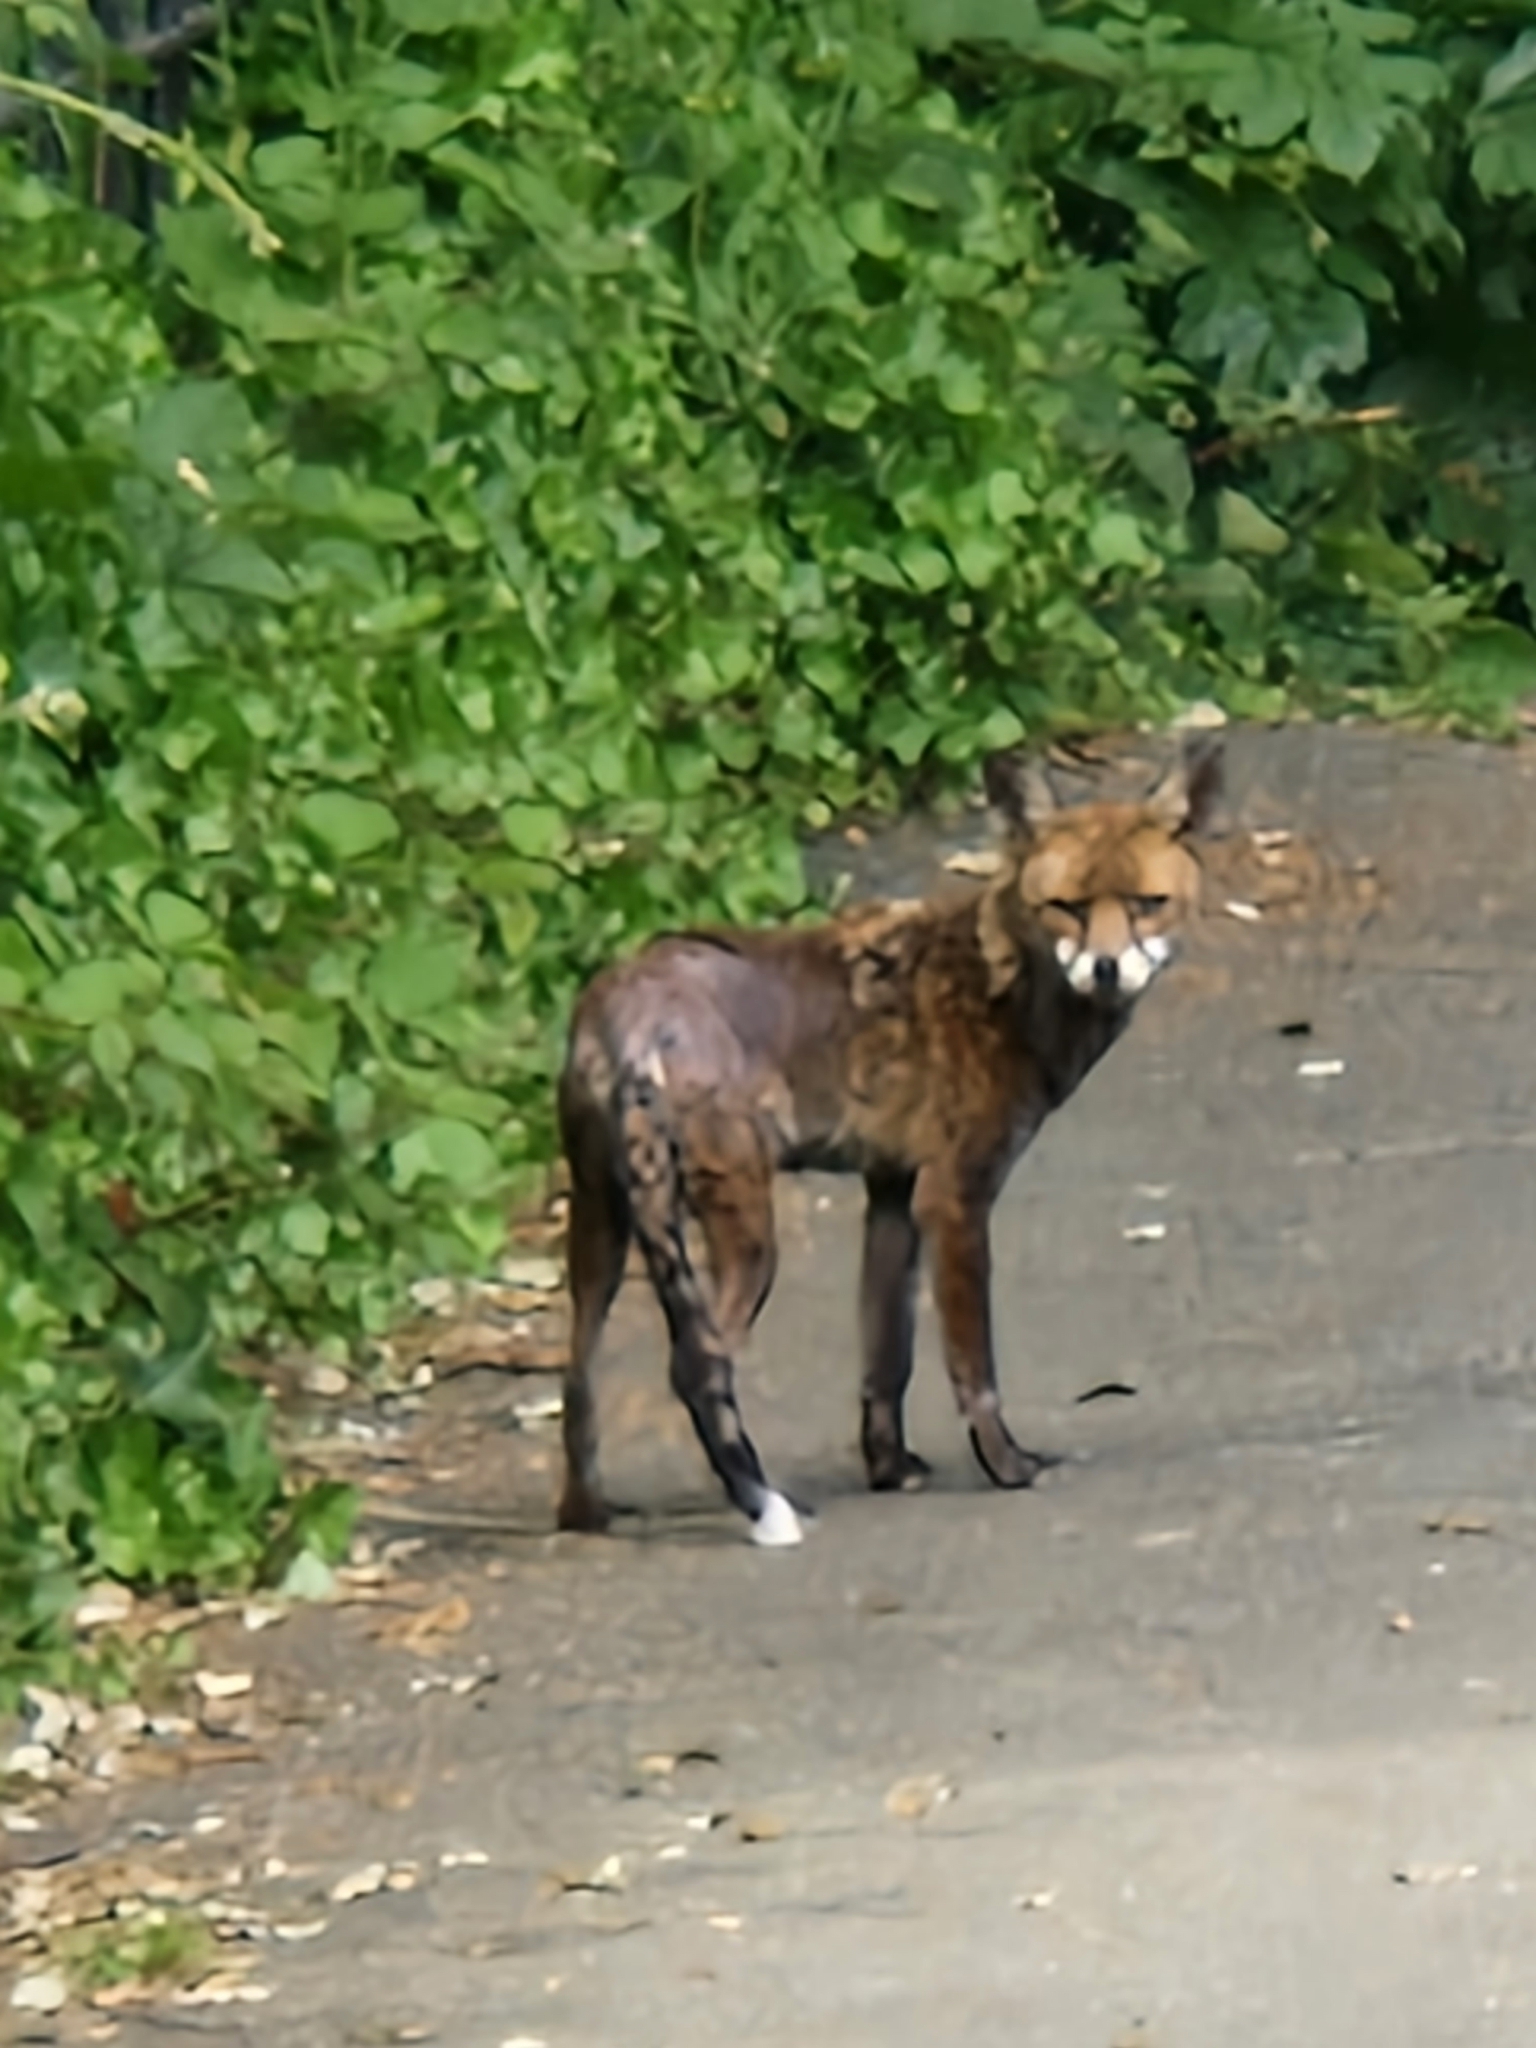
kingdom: Animalia
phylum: Chordata
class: Mammalia
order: Carnivora
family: Canidae
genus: Vulpes
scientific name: Vulpes vulpes
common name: Red fox
